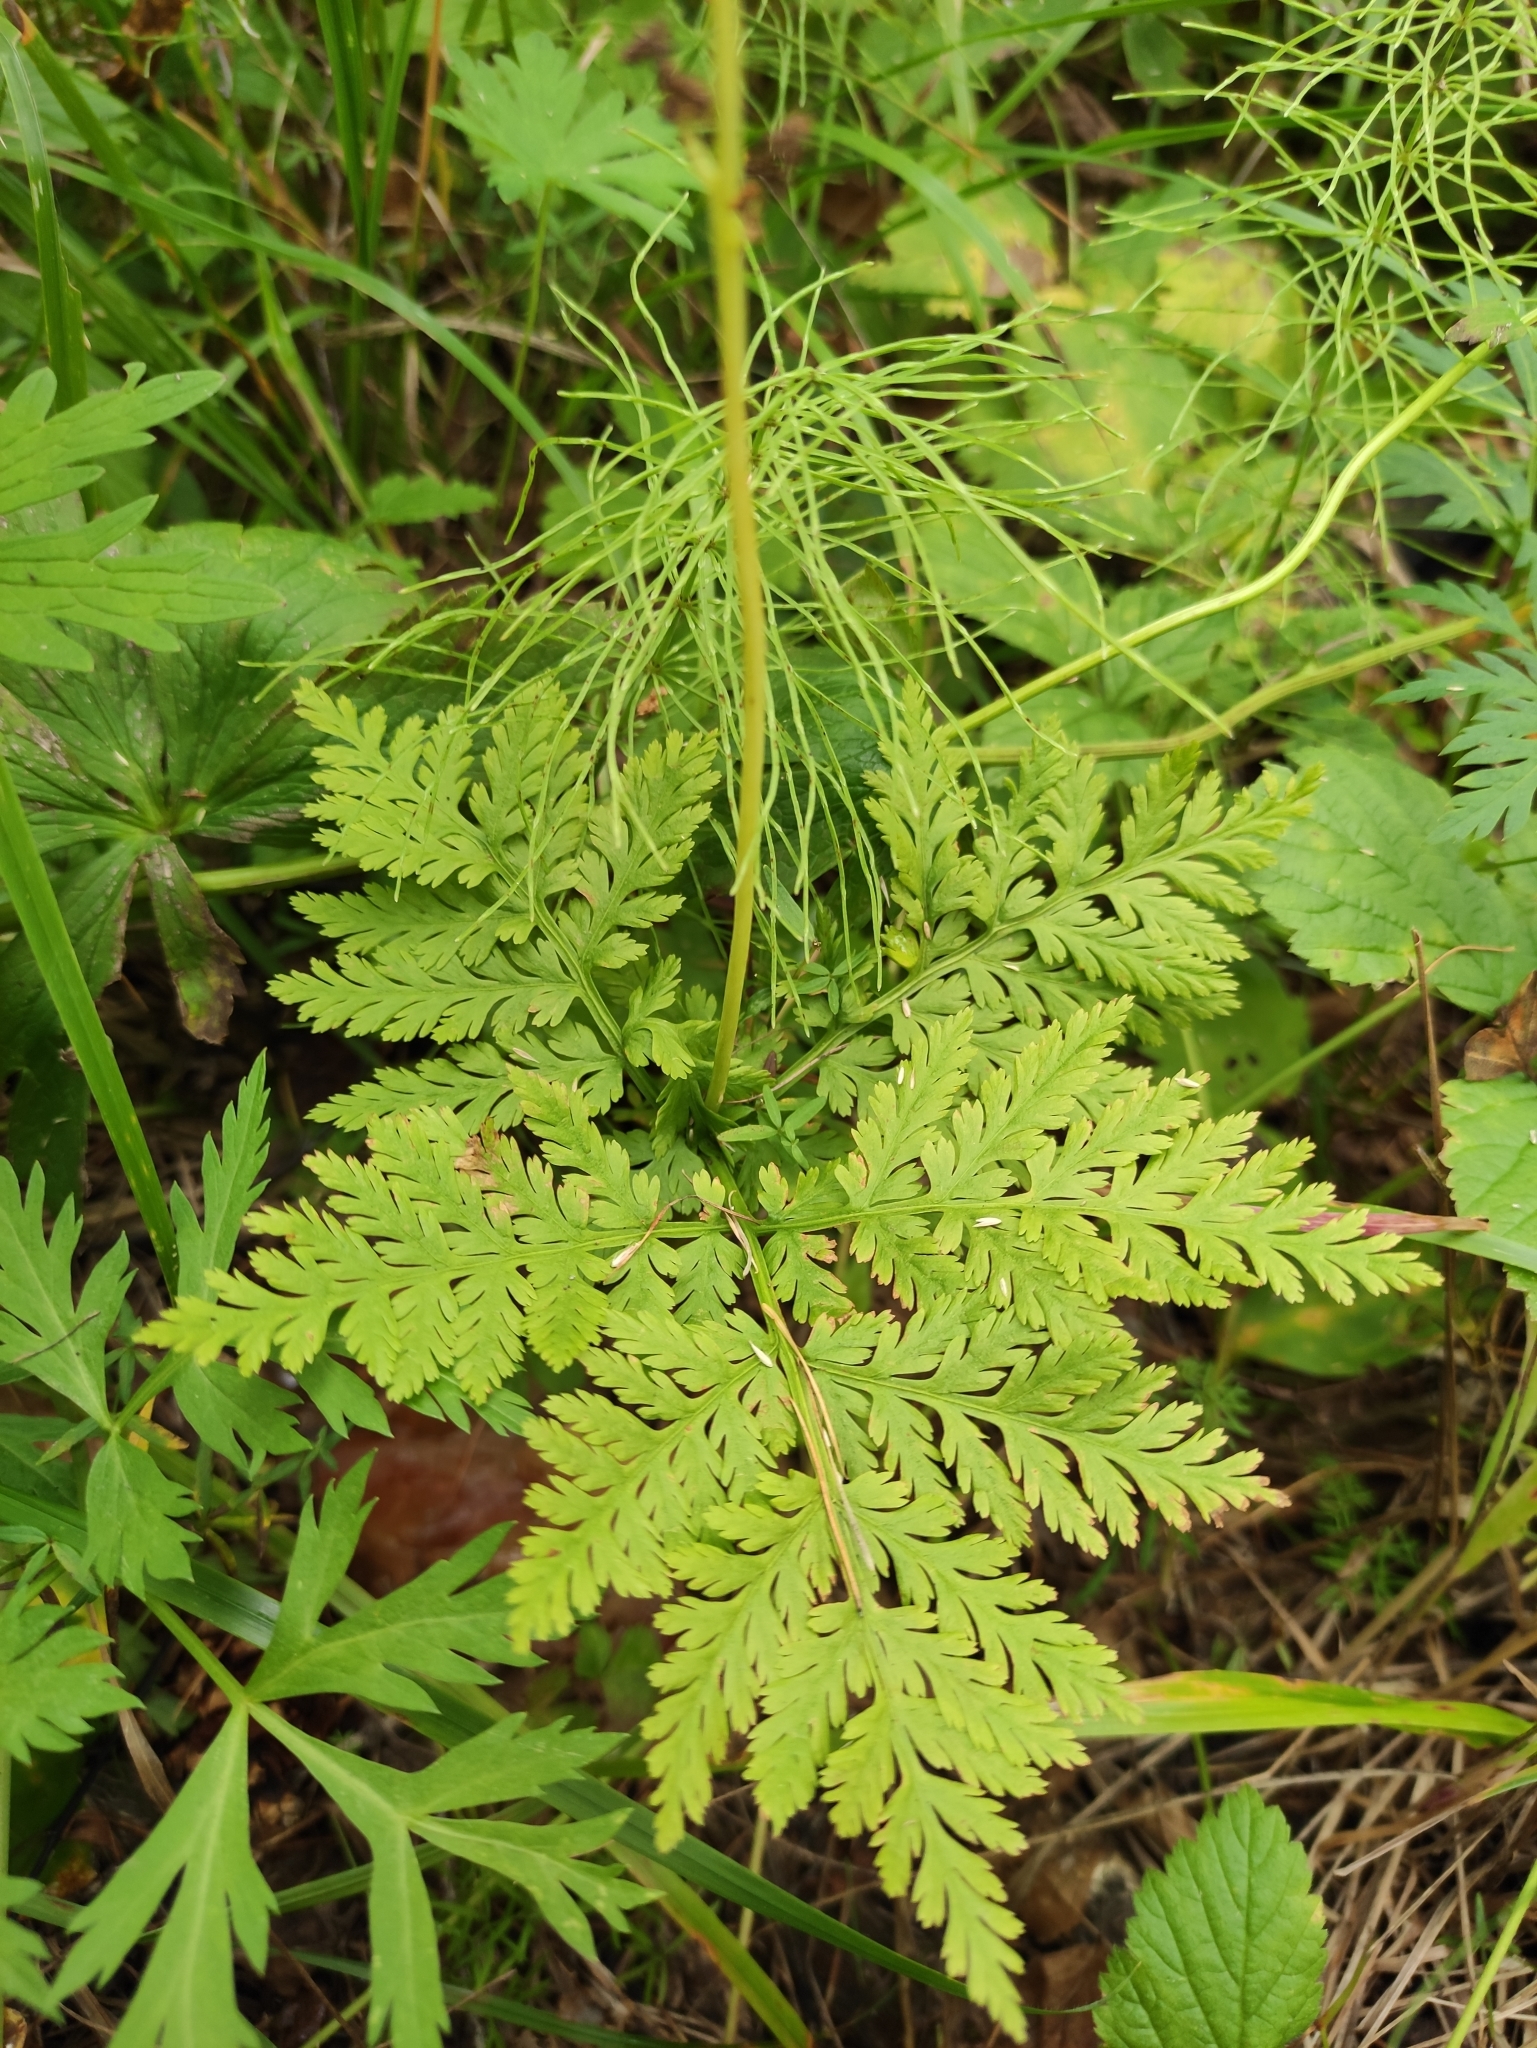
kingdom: Plantae
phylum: Tracheophyta
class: Polypodiopsida
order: Ophioglossales
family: Ophioglossaceae
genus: Botrypus
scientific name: Botrypus virginianus
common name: Common grapefern
